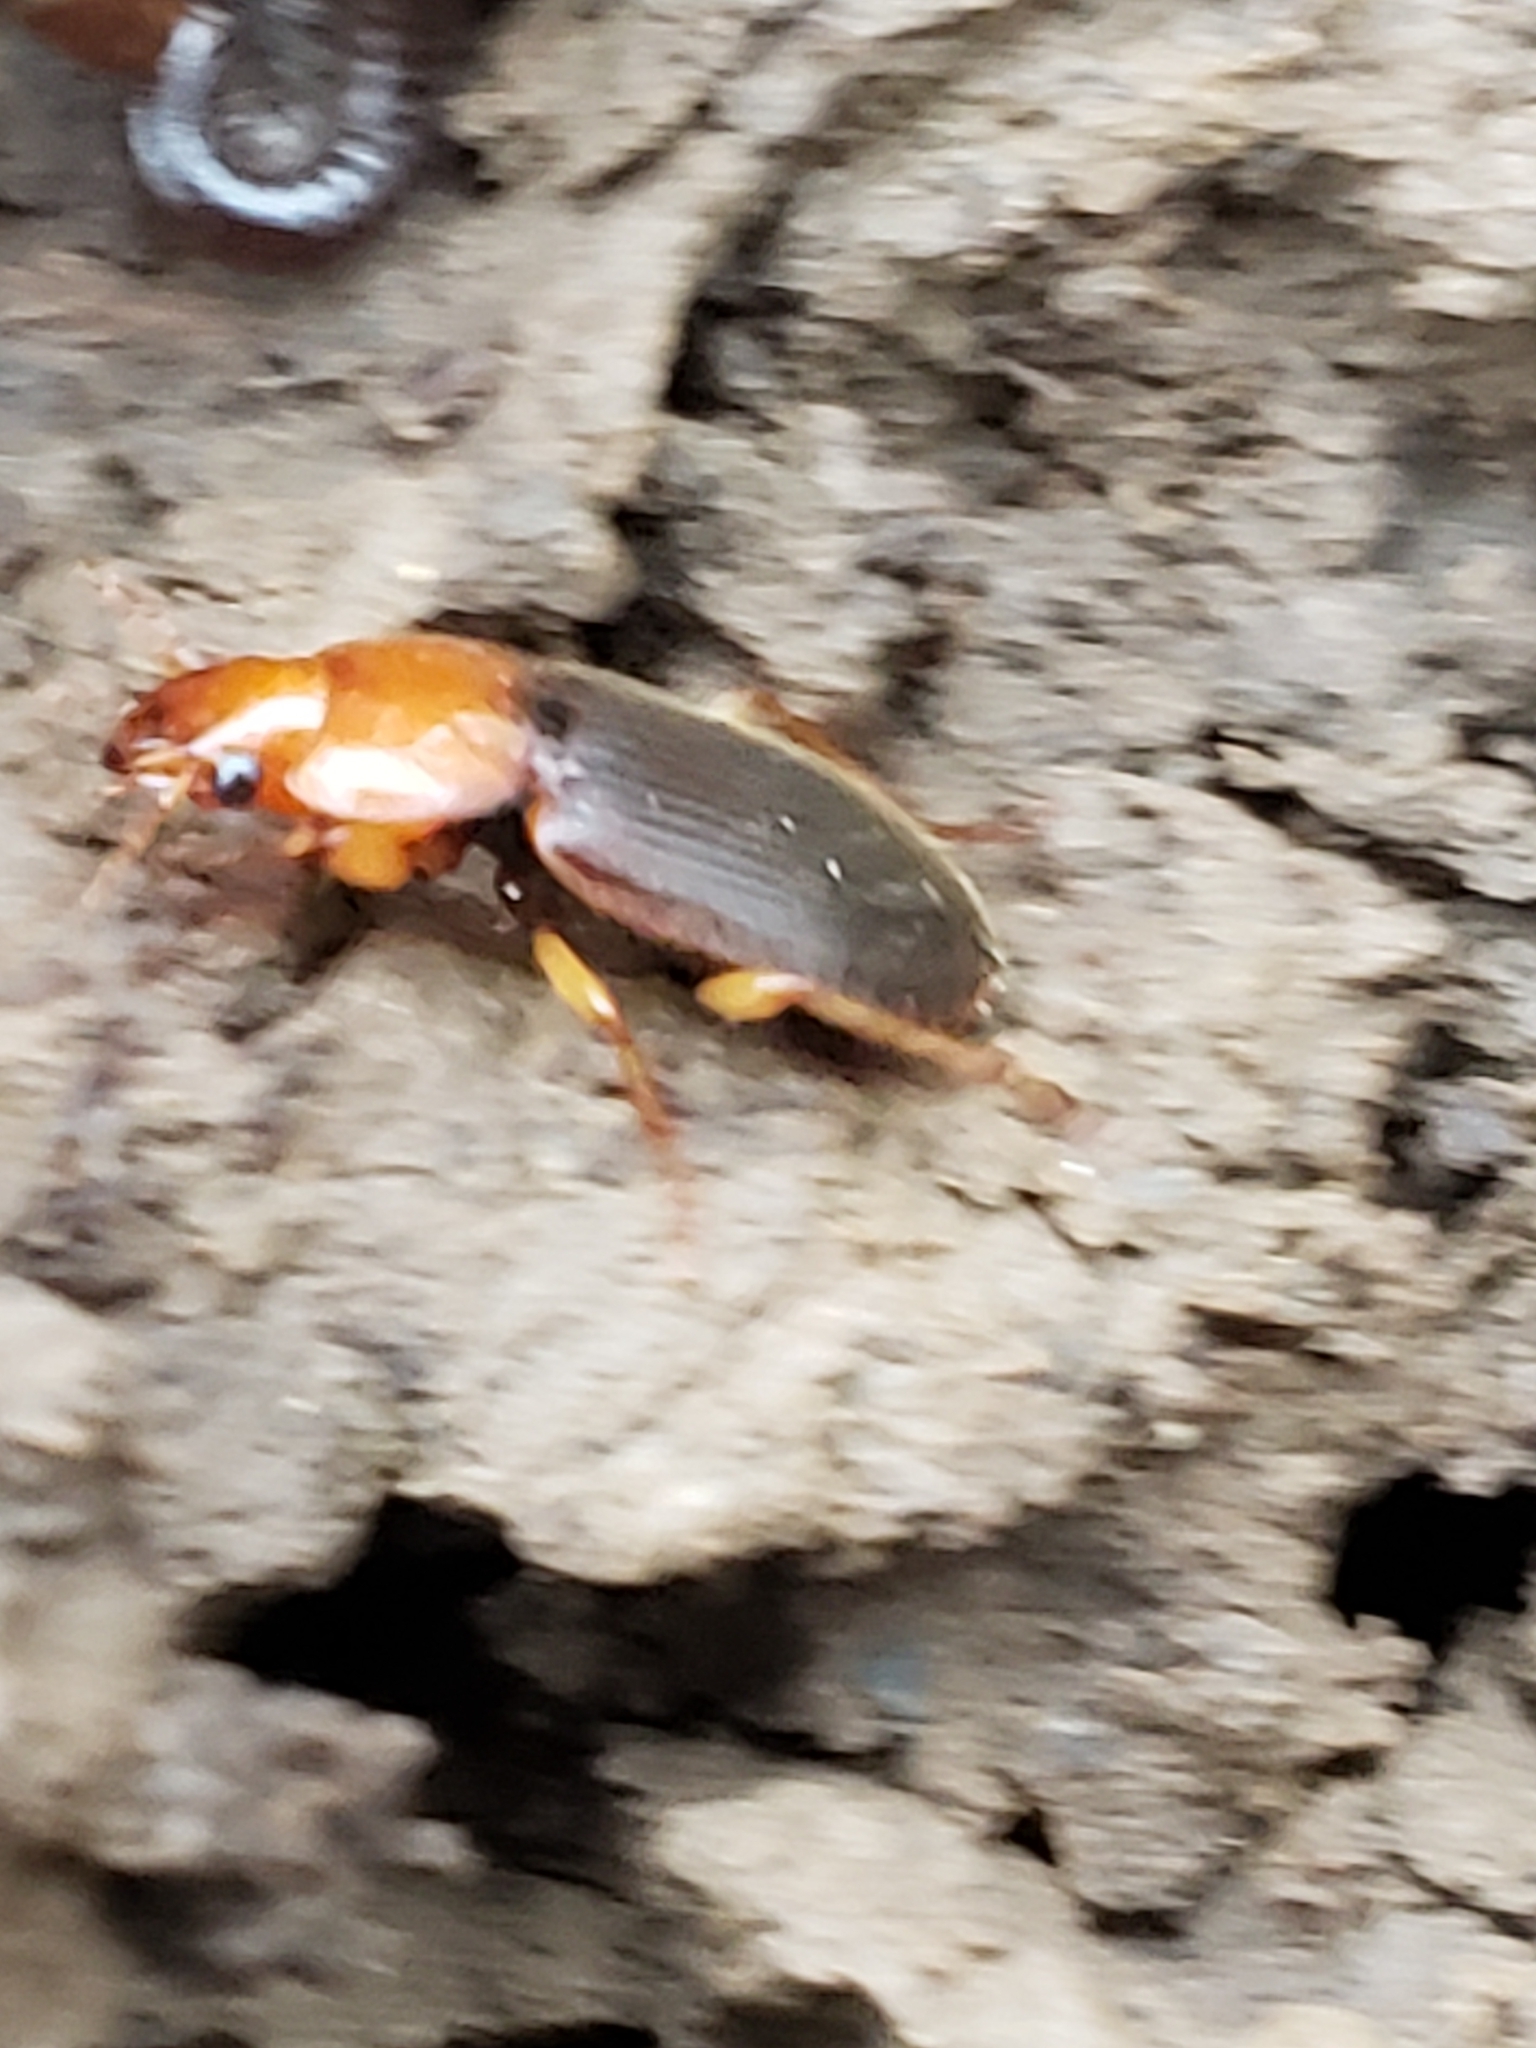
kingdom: Animalia
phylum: Arthropoda
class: Insecta
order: Coleoptera
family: Carabidae
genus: Amphasia
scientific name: Amphasia interstitialis
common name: Red-headed ground beetle
